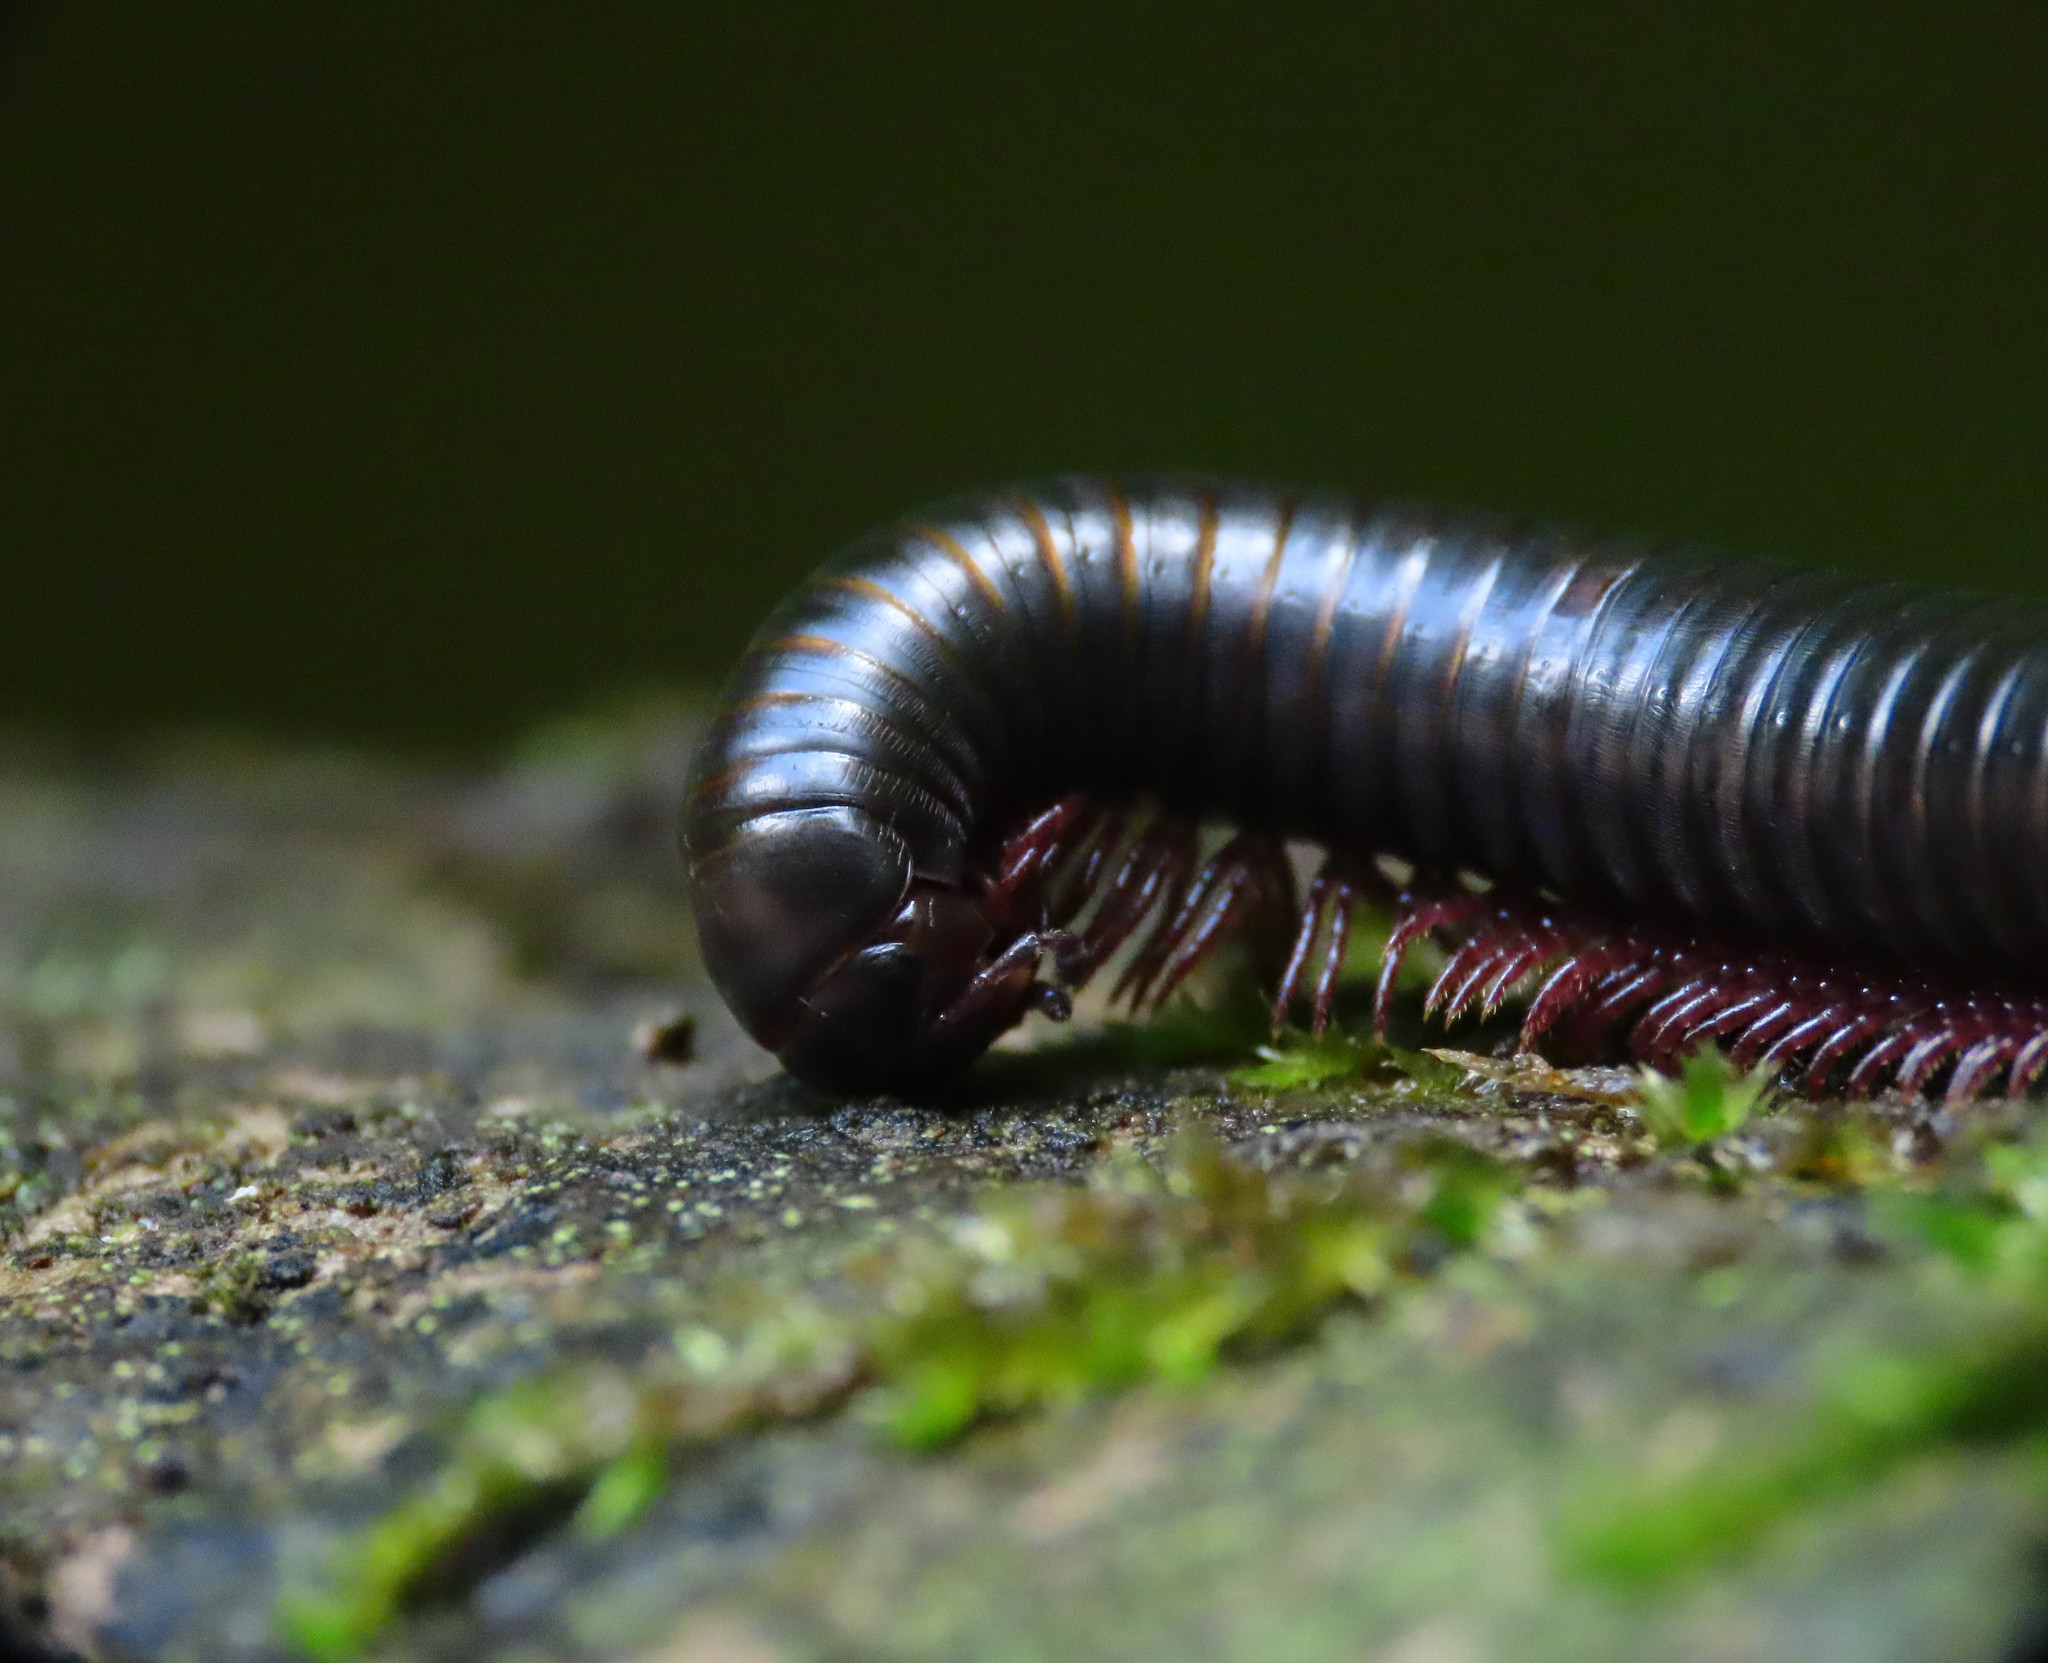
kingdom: Animalia
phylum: Arthropoda
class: Diplopoda
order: Julida
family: Julidae
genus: Pachyiulus
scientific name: Pachyiulus oenologus
